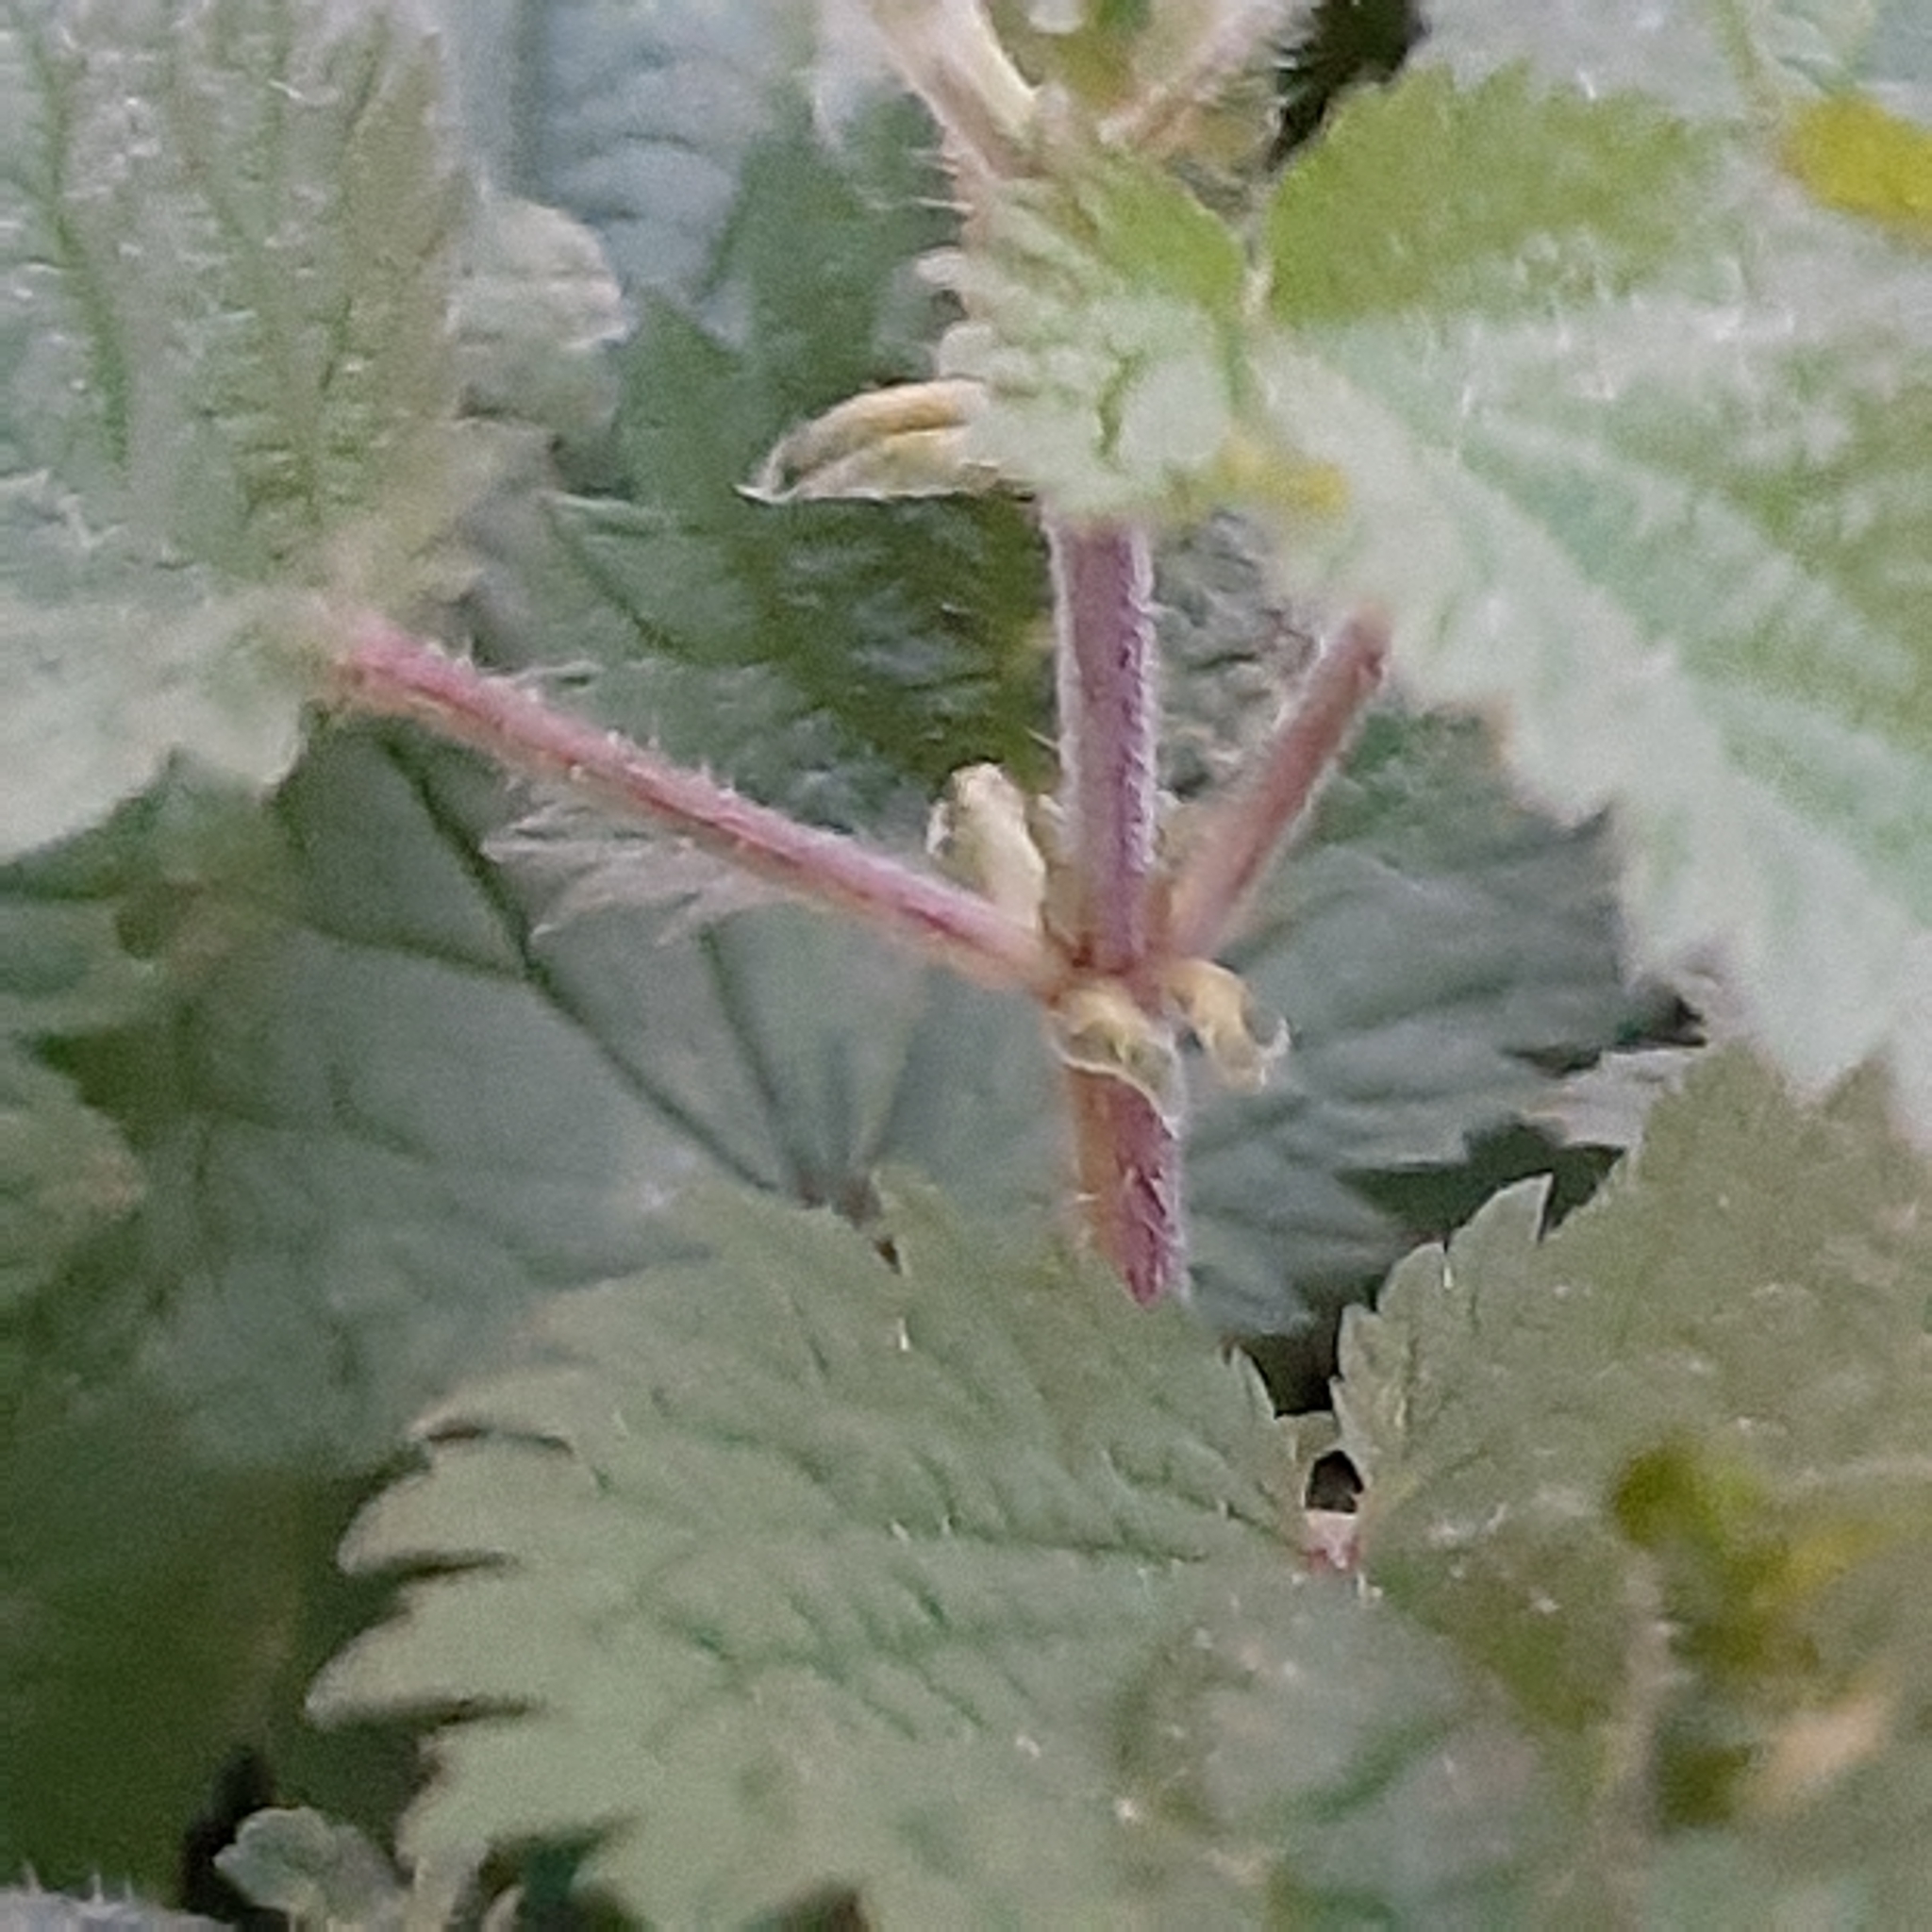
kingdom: Plantae
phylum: Tracheophyta
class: Magnoliopsida
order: Rosales
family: Urticaceae
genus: Urtica
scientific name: Urtica dioica
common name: Common nettle
